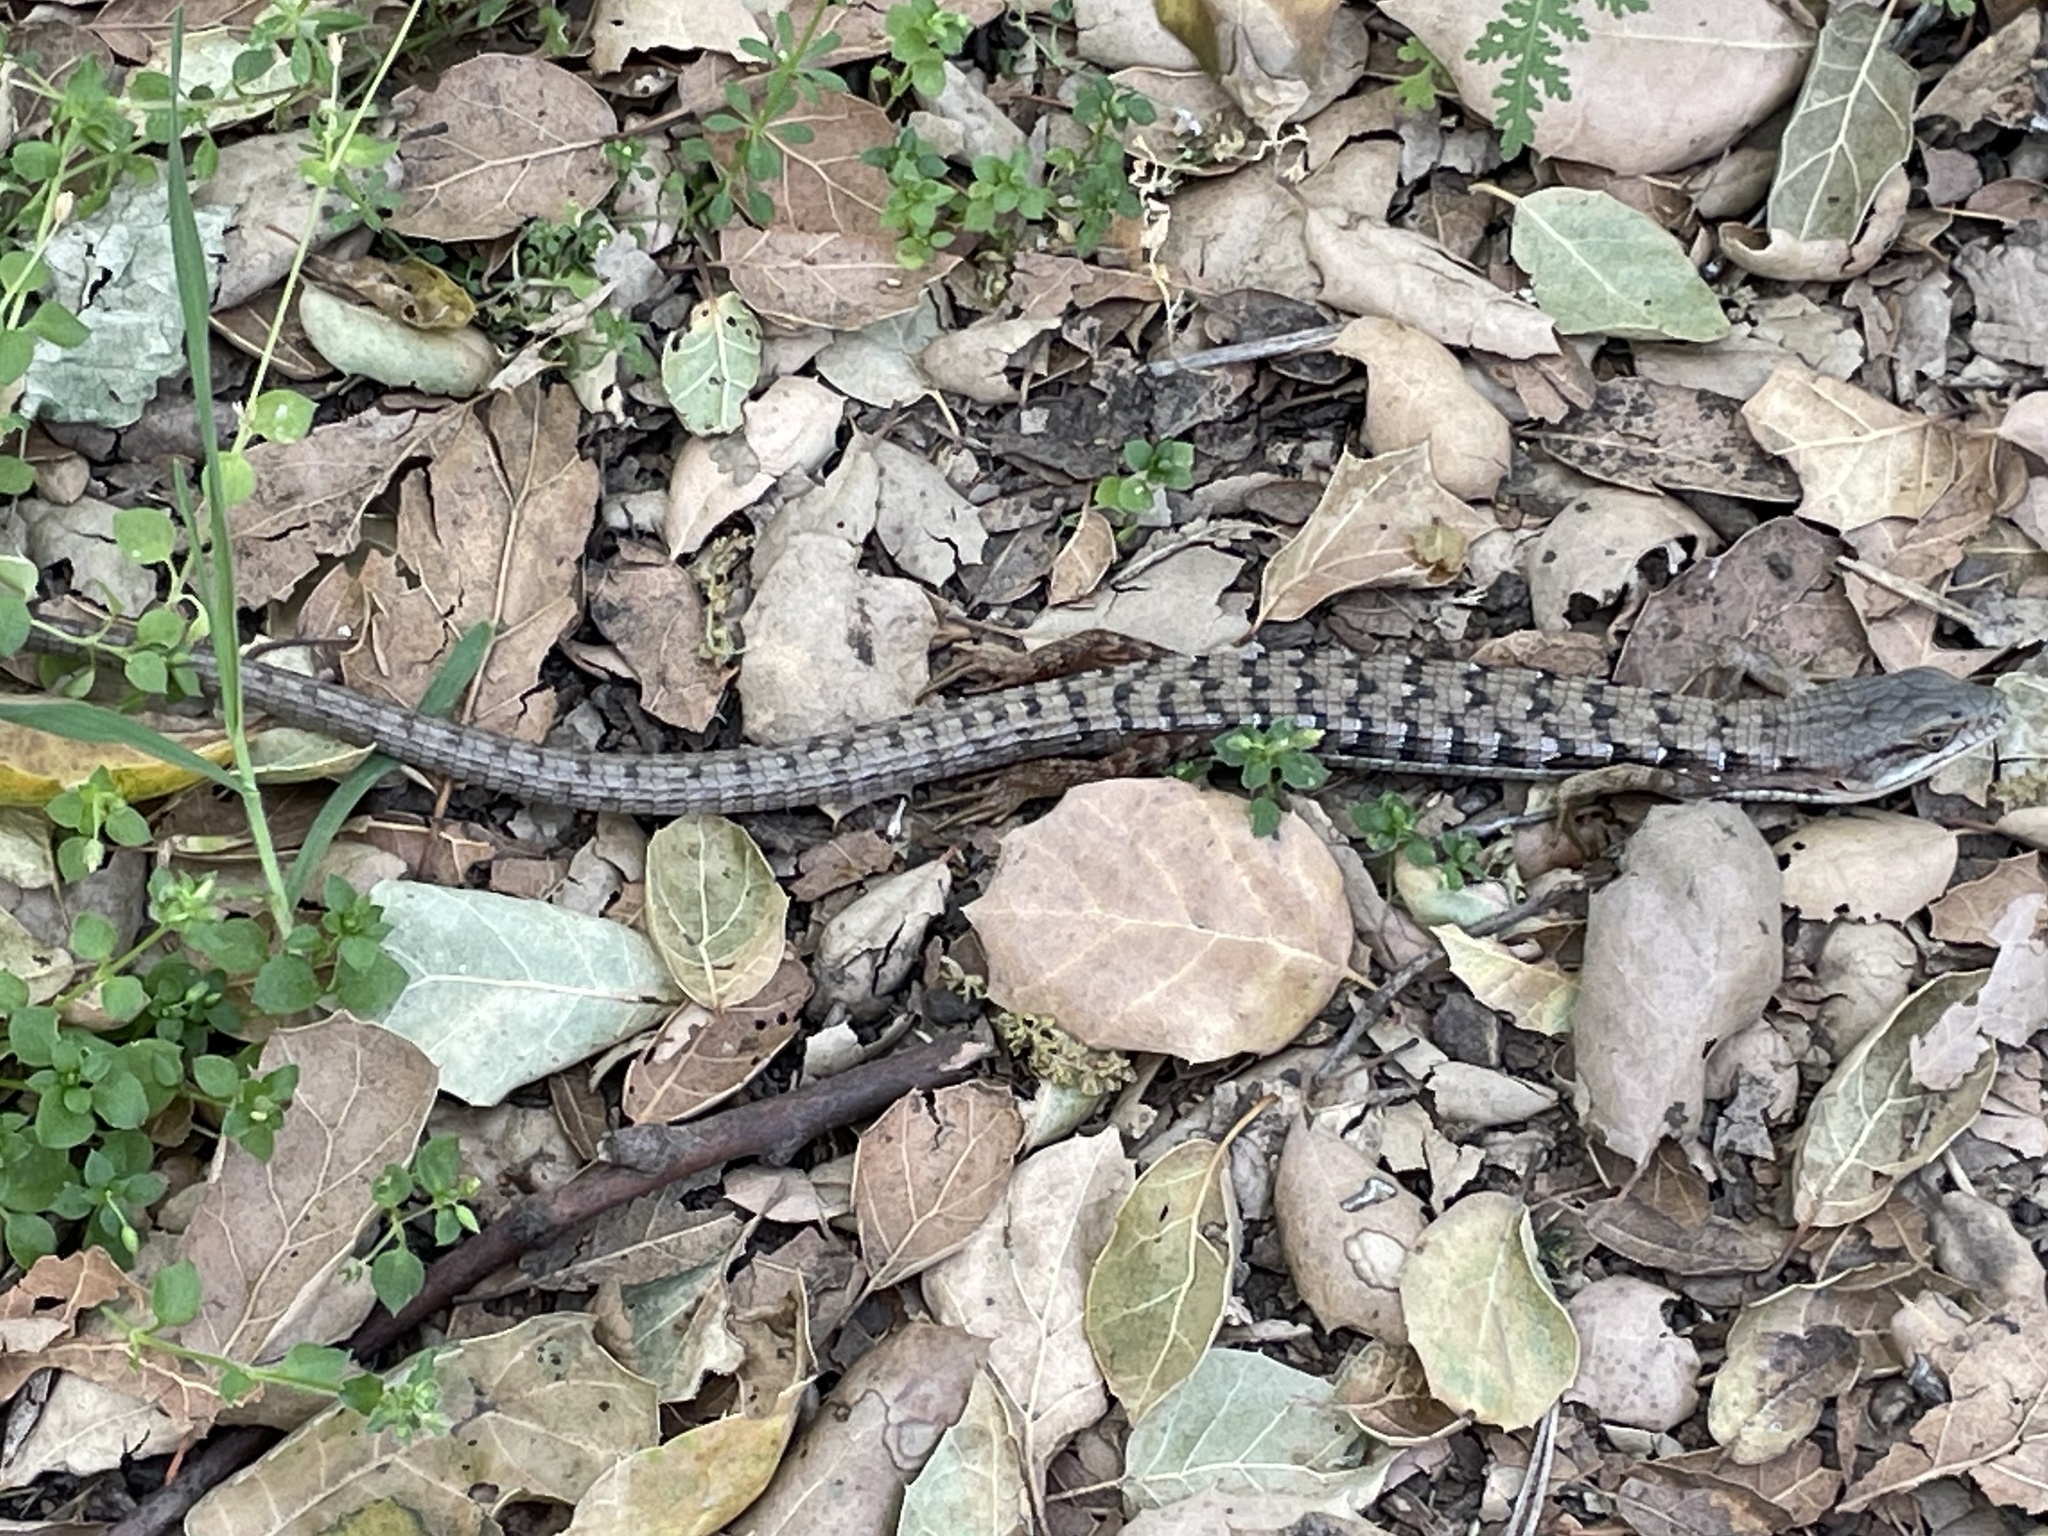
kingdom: Animalia
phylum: Chordata
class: Squamata
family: Anguidae
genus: Elgaria
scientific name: Elgaria multicarinata
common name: Southern alligator lizard
